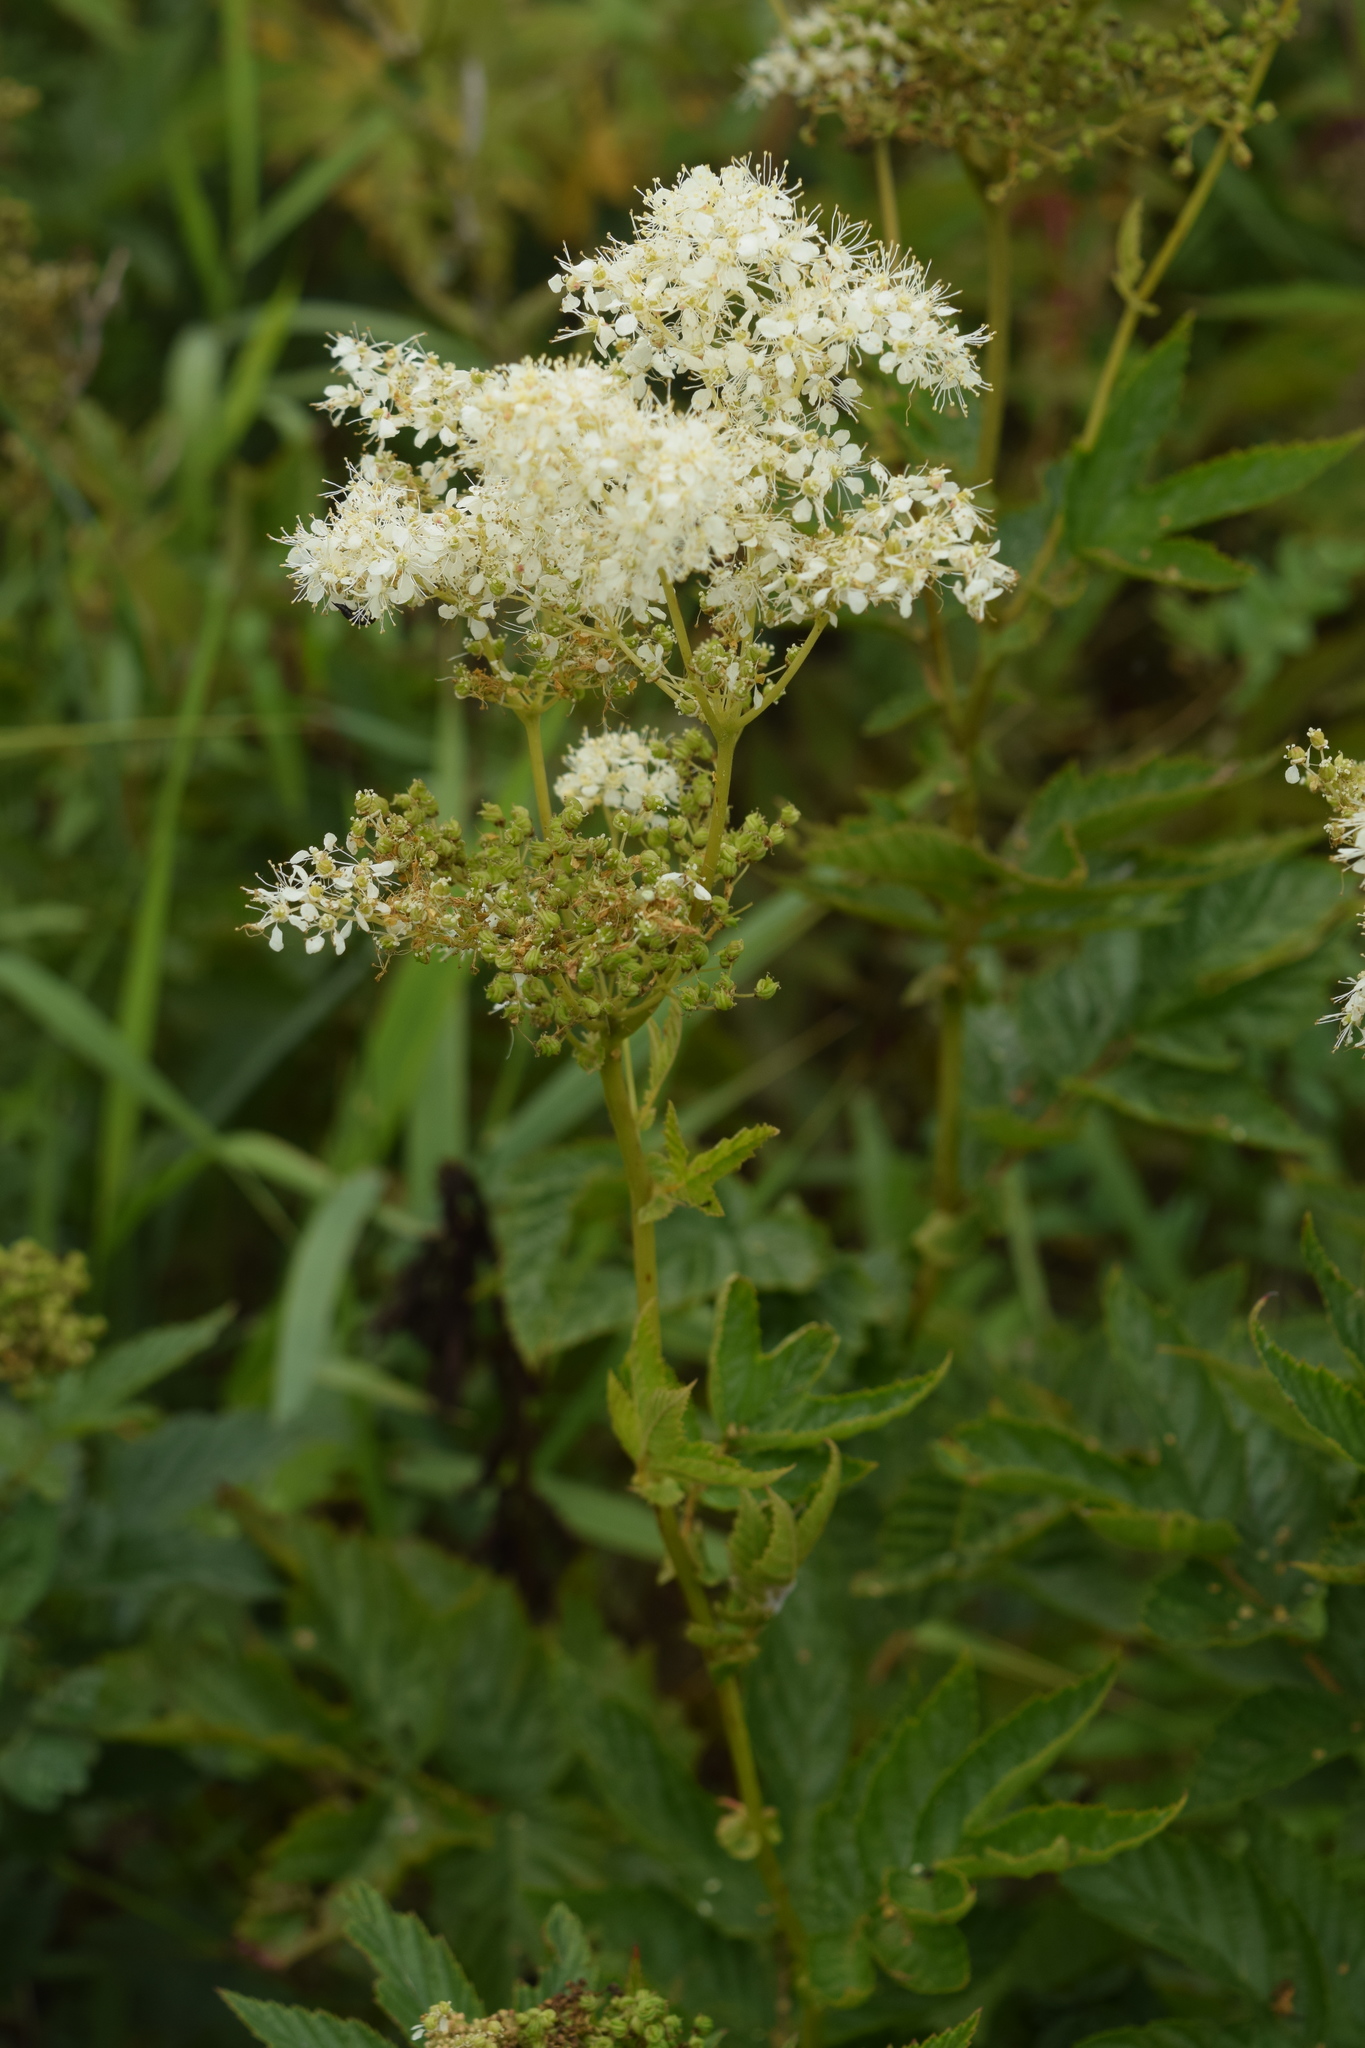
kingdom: Plantae
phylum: Tracheophyta
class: Magnoliopsida
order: Rosales
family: Rosaceae
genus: Filipendula
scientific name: Filipendula ulmaria
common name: Meadowsweet
